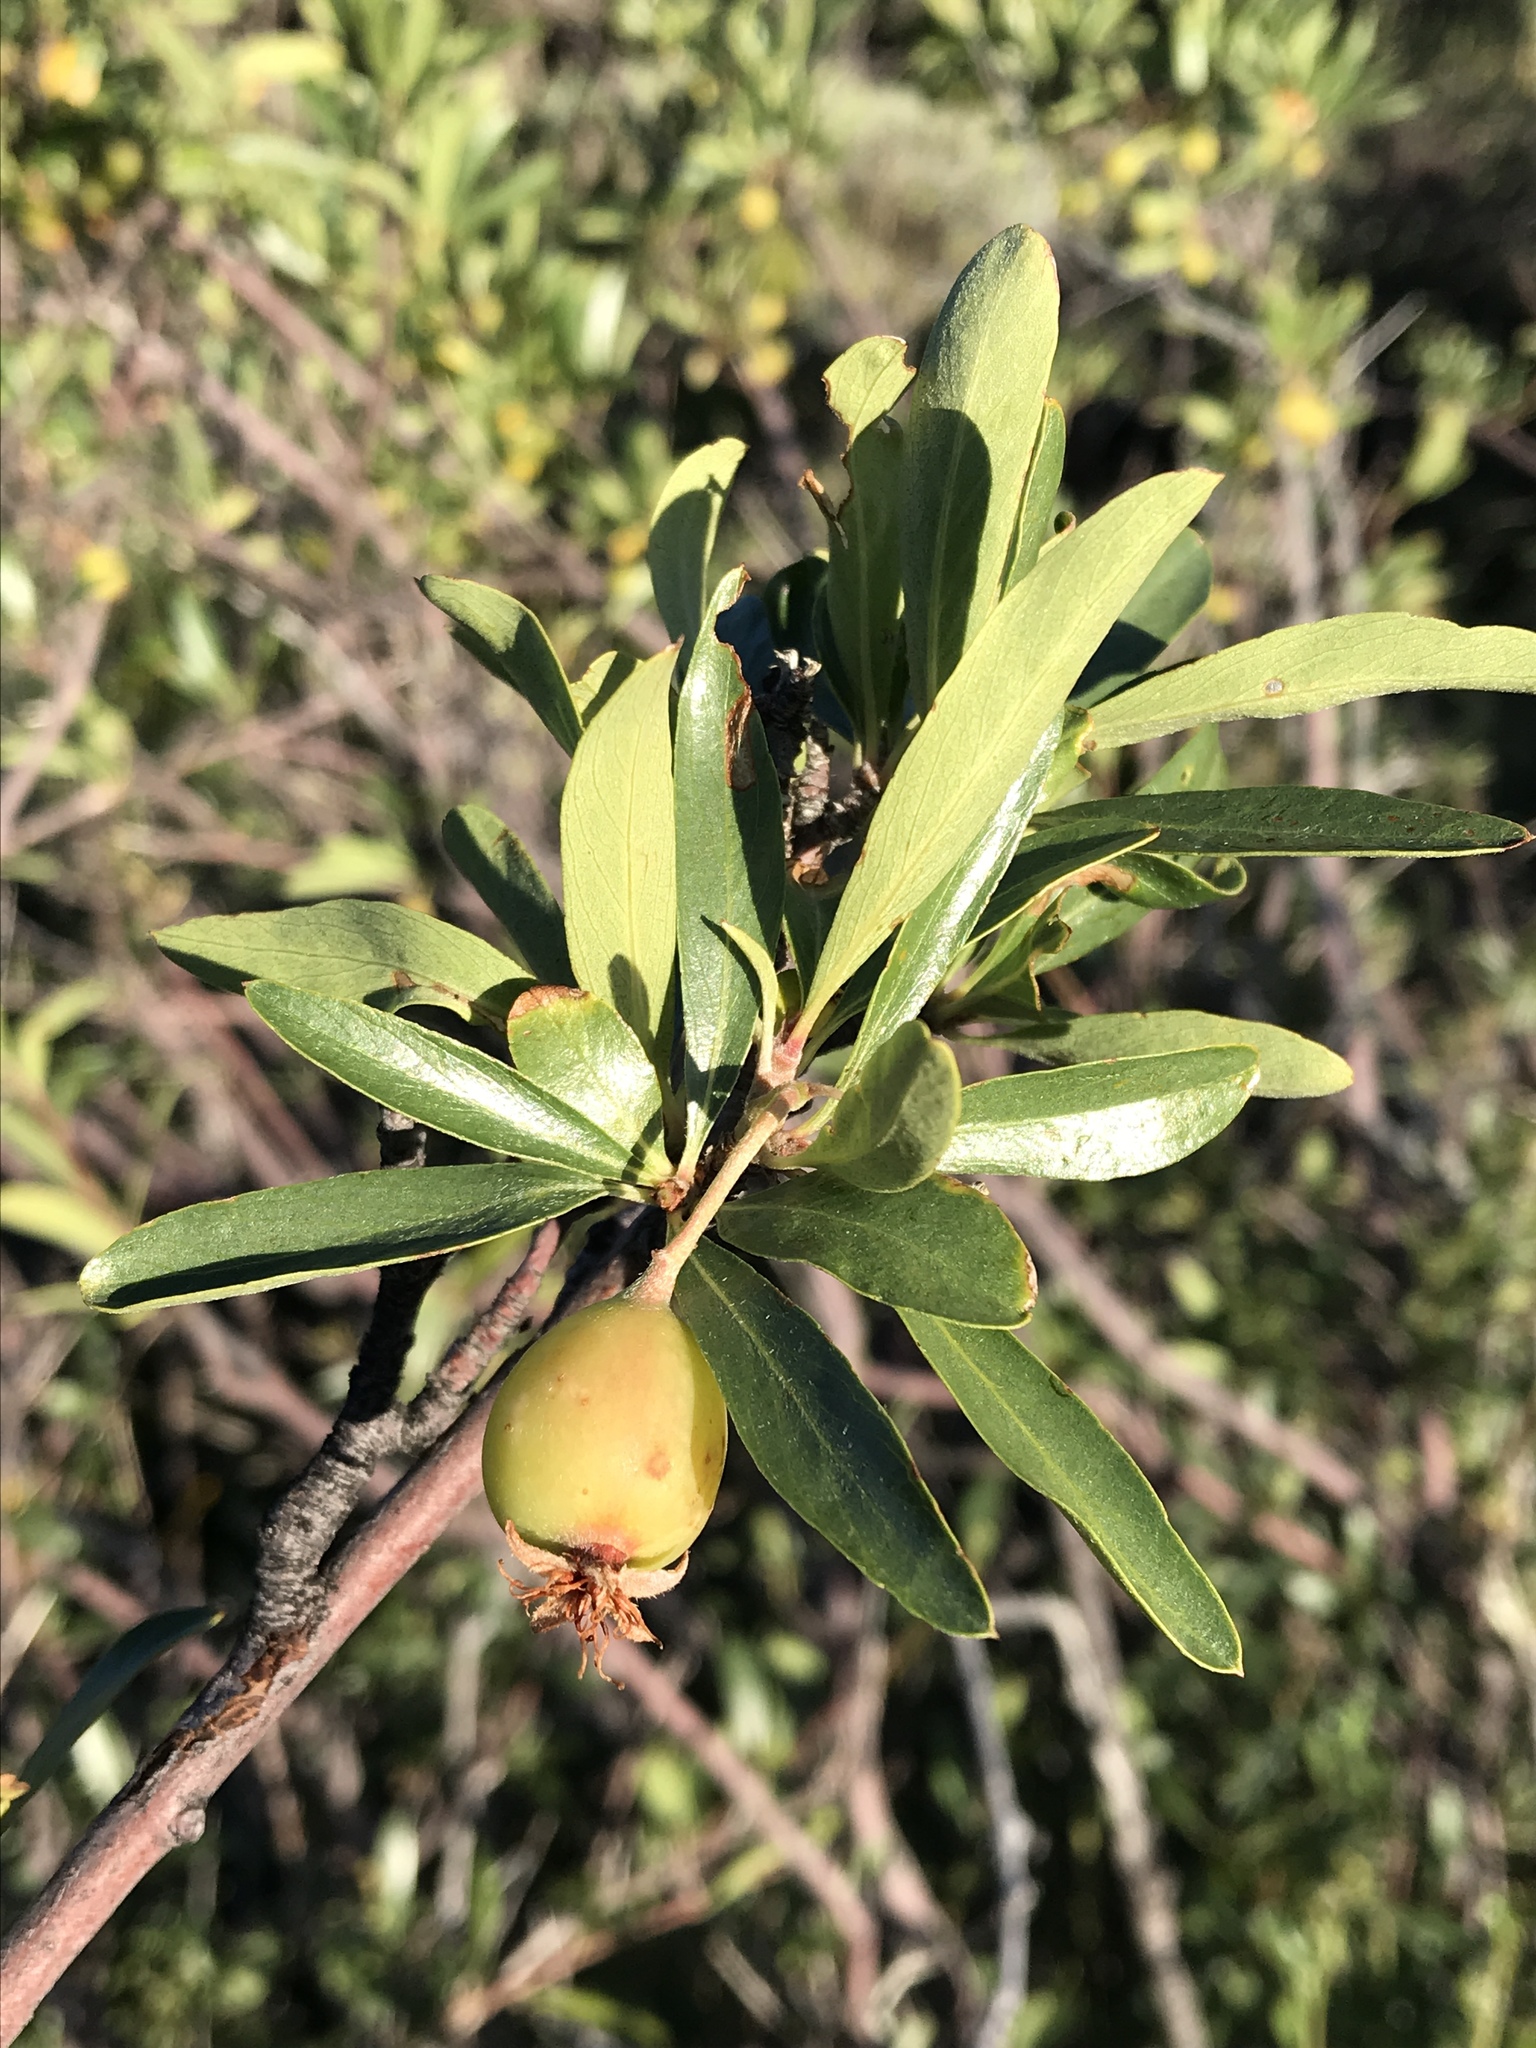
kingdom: Plantae
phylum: Tracheophyta
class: Magnoliopsida
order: Rosales
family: Rosaceae
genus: Amelanchier
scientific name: Amelanchier ramosissima
